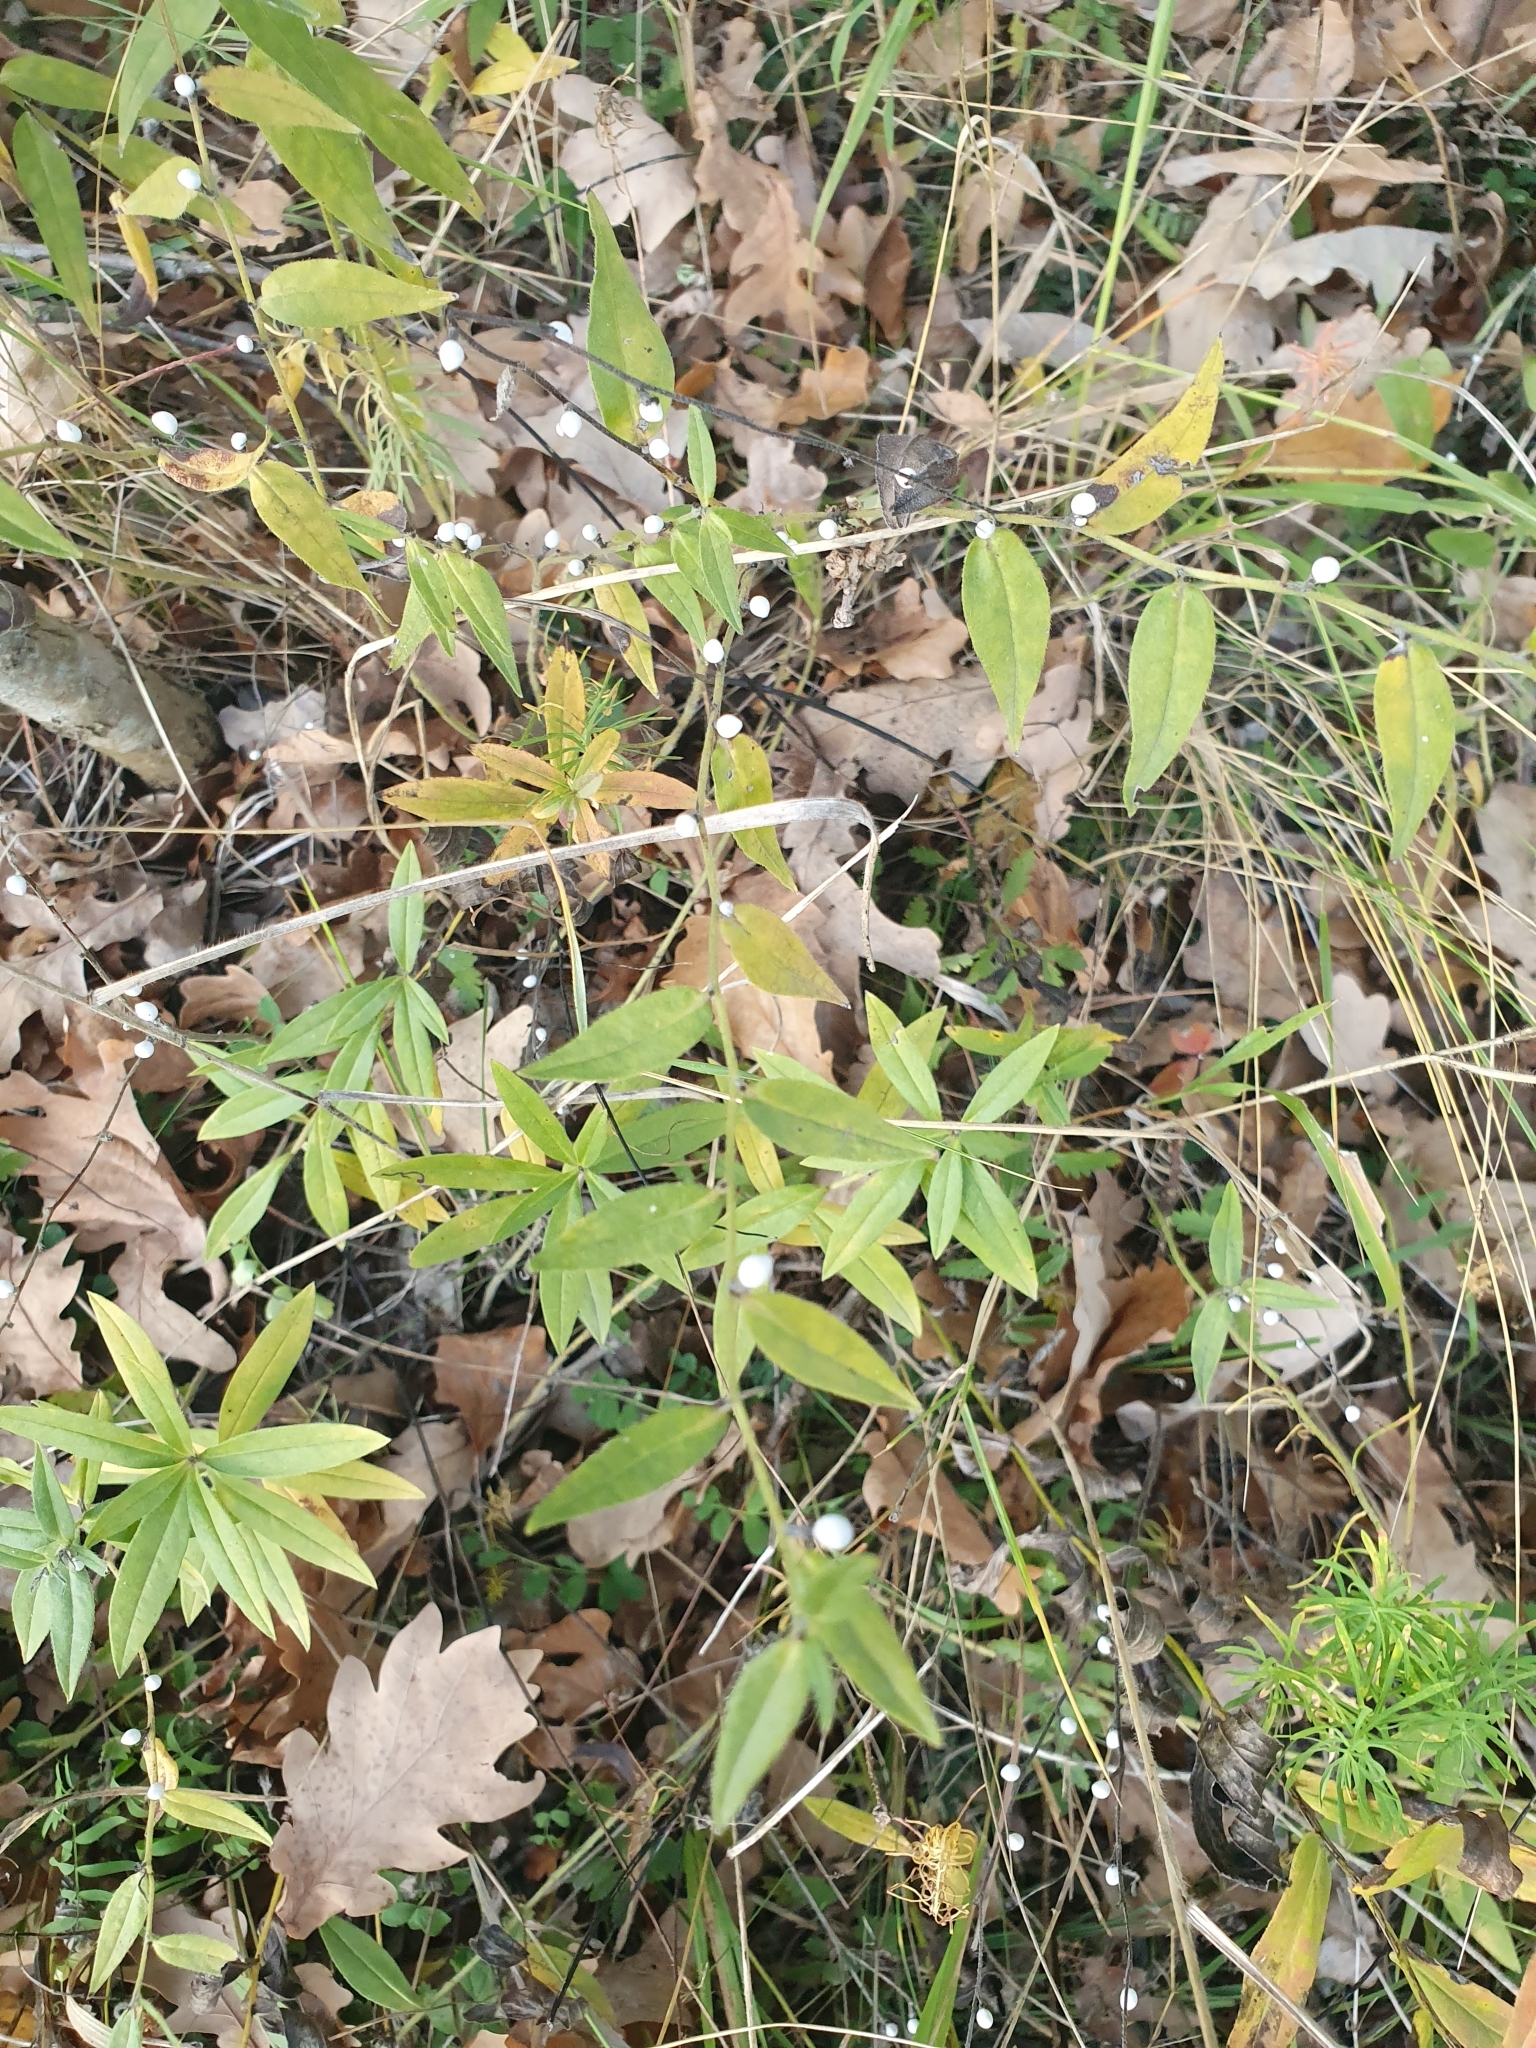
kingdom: Plantae
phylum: Tracheophyta
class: Magnoliopsida
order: Boraginales
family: Boraginaceae
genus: Aegonychon
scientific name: Aegonychon purpurocaeruleum
